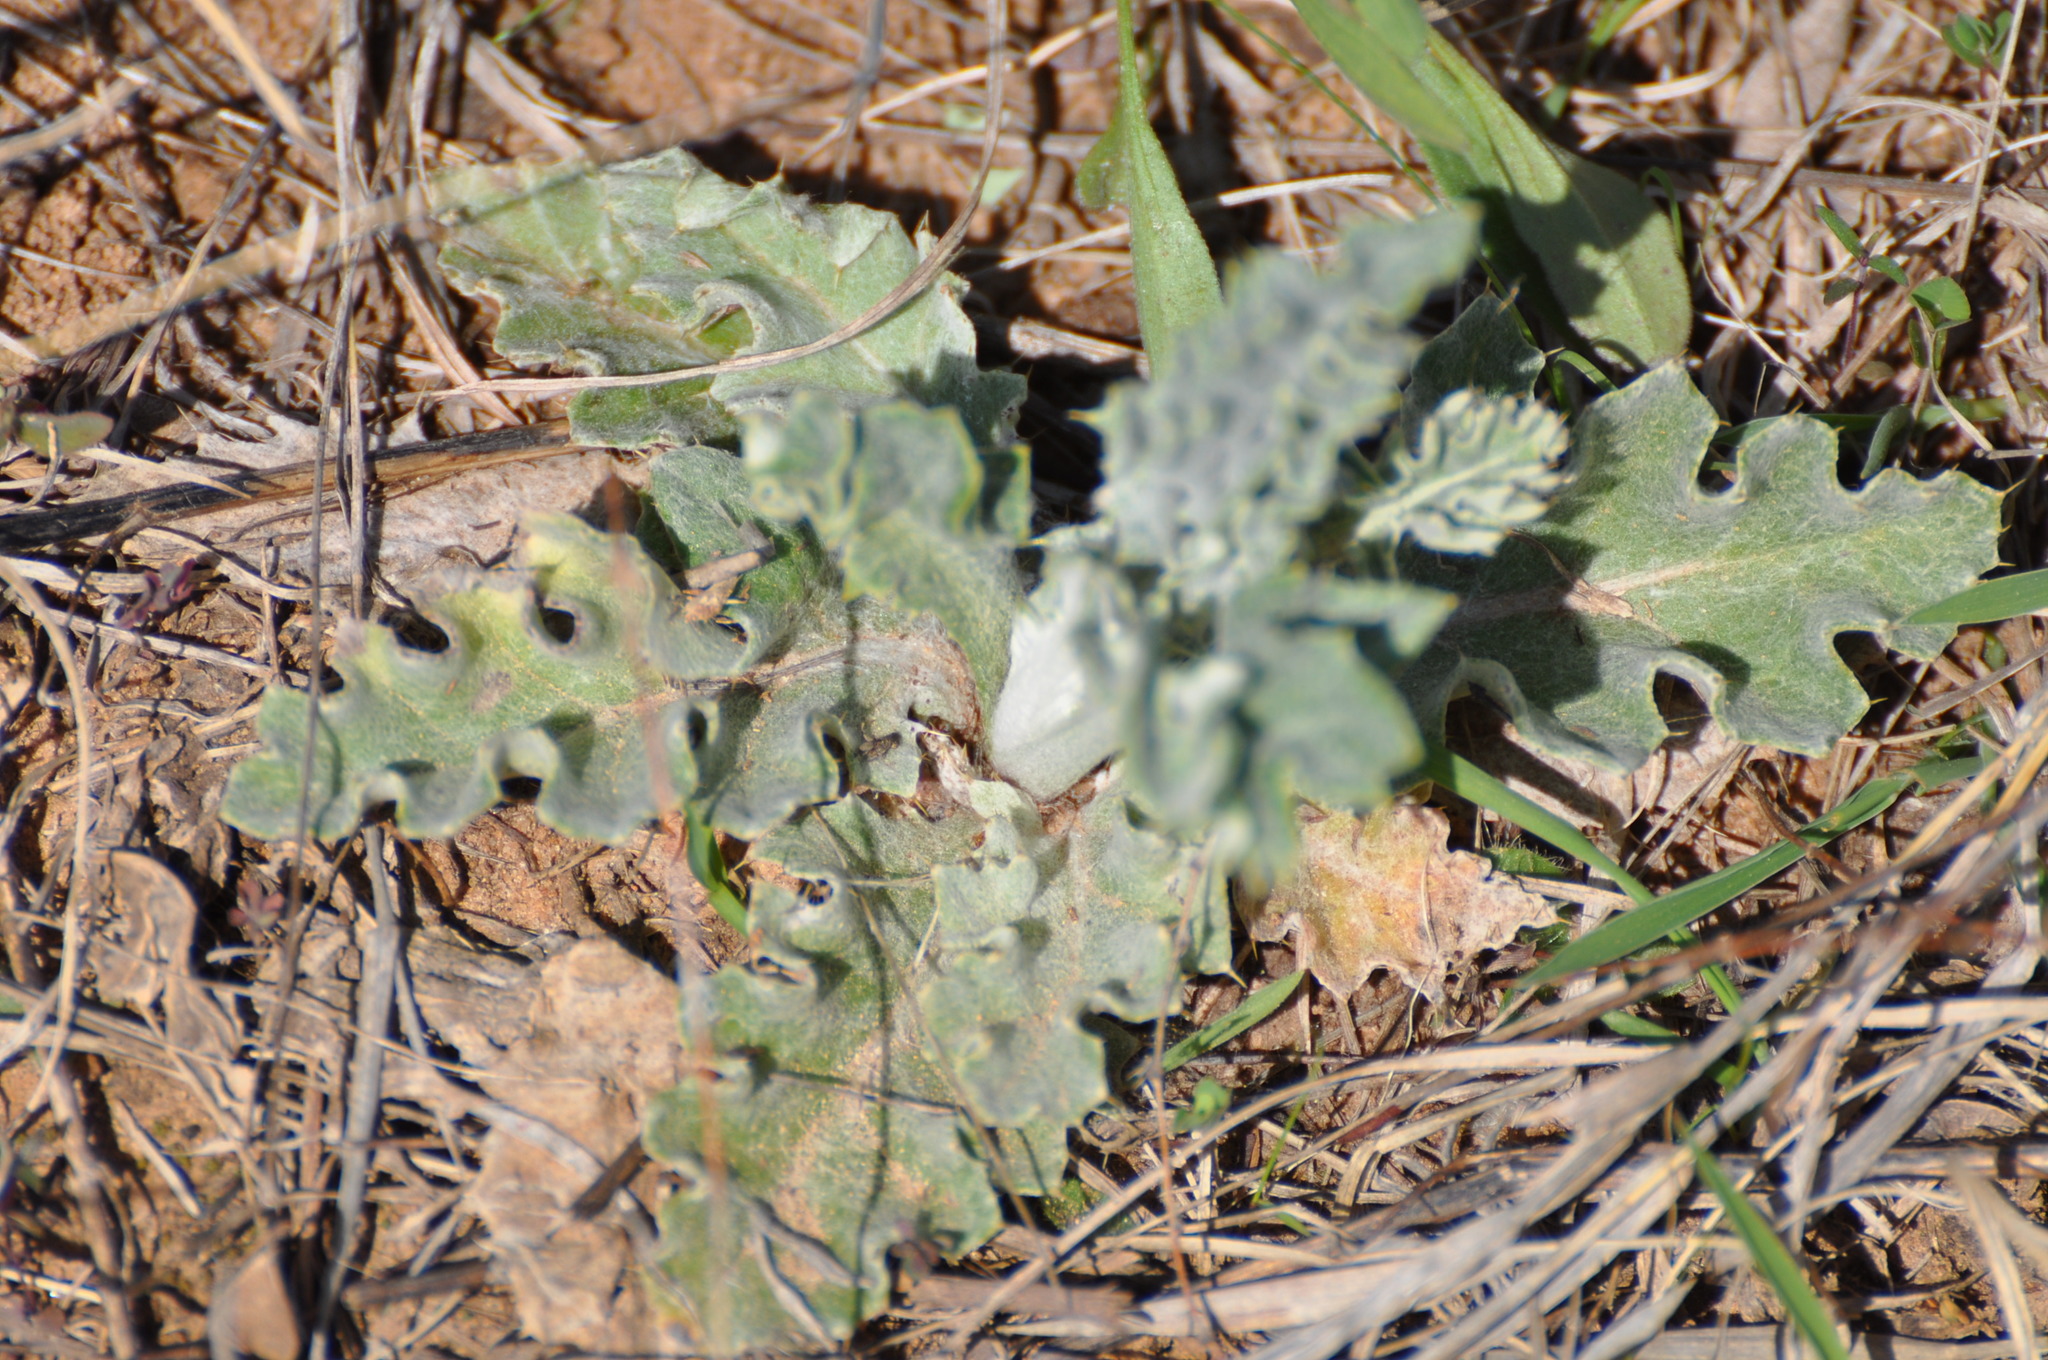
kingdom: Plantae
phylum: Tracheophyta
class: Magnoliopsida
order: Asterales
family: Asteraceae
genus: Cirsium
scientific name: Cirsium undulatum
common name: Pasture thistle
